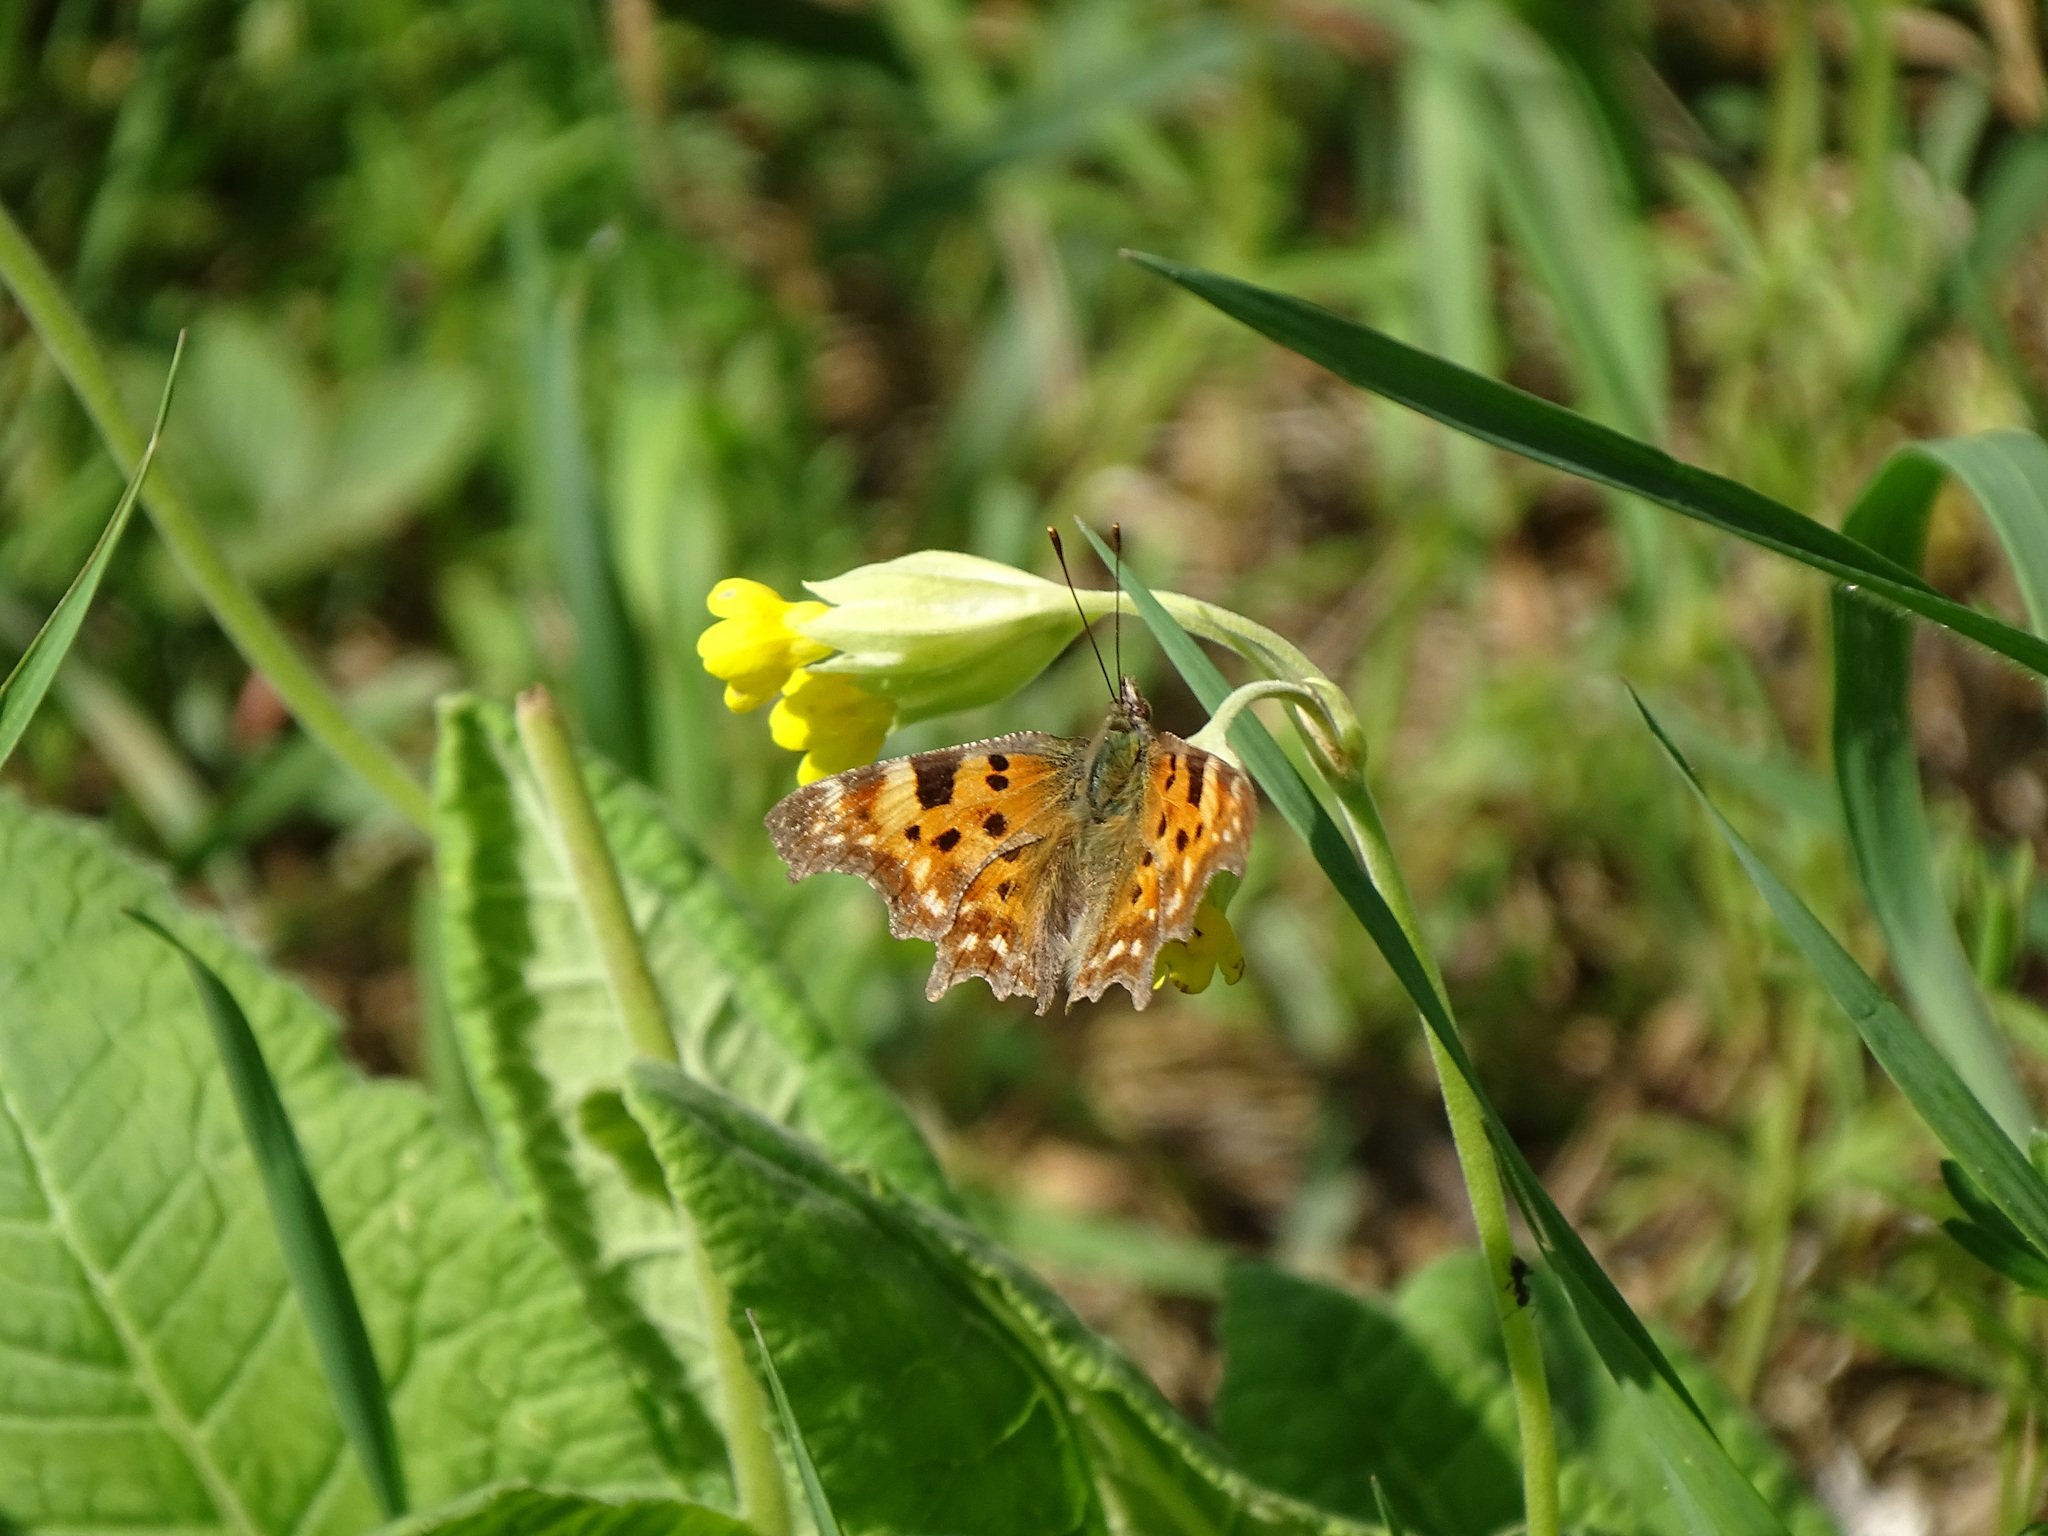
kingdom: Animalia
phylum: Arthropoda
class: Insecta
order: Lepidoptera
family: Nymphalidae
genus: Polygonia
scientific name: Polygonia c-album
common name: Comma
